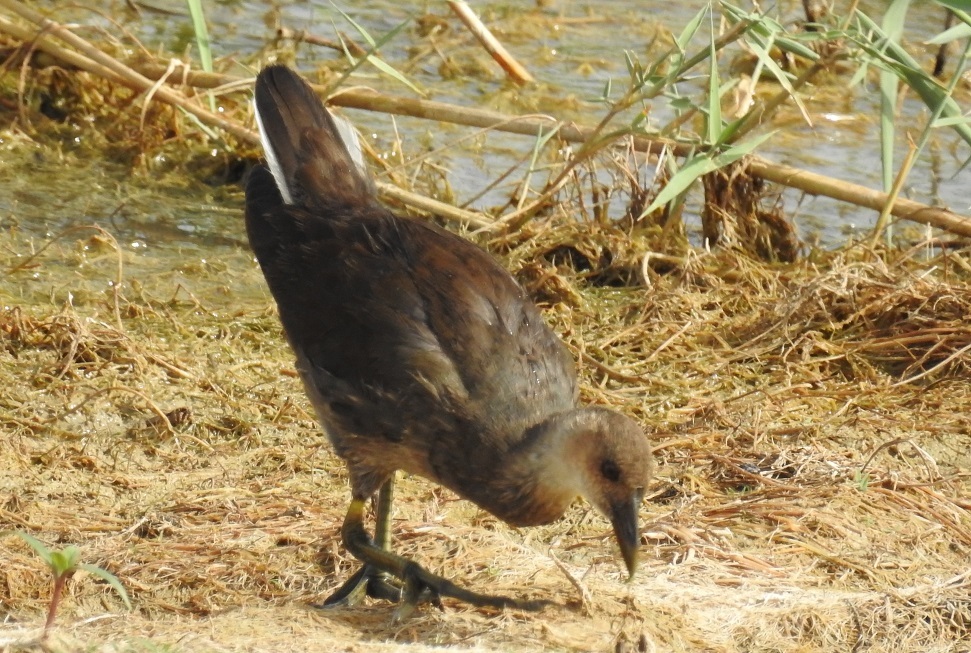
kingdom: Animalia
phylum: Chordata
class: Aves
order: Gruiformes
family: Rallidae
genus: Gallinula
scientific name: Gallinula chloropus
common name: Common moorhen
